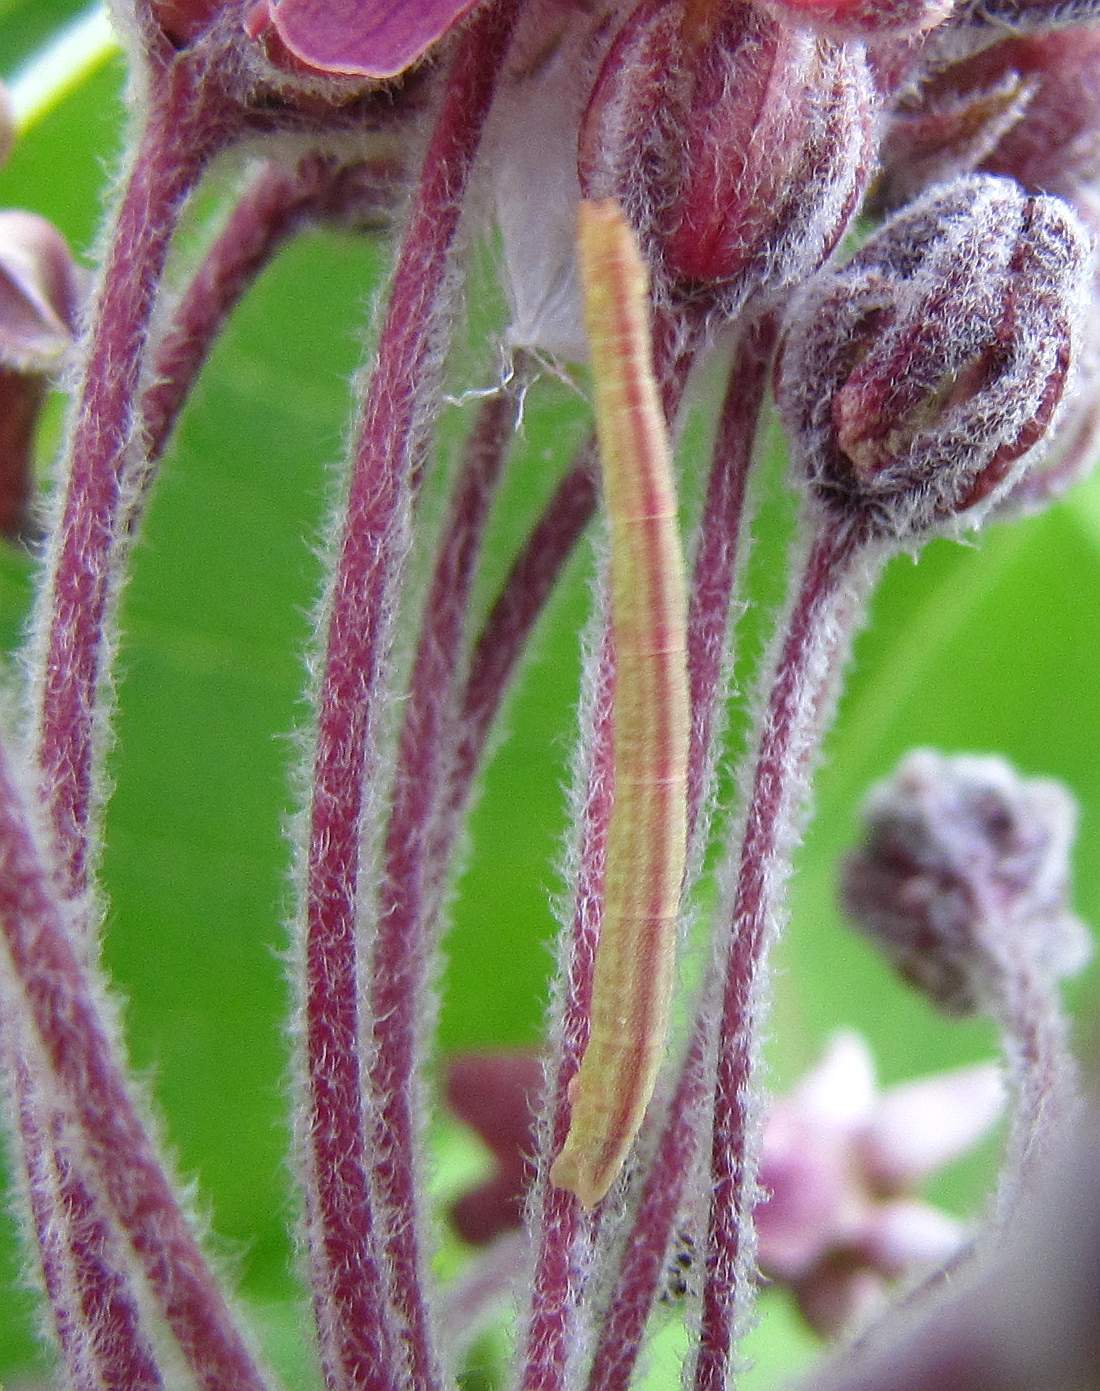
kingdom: Animalia
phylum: Arthropoda
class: Insecta
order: Lepidoptera
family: Geometridae
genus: Chlorochlamys
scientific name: Chlorochlamys chloroleucaria
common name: Blackberry looper
